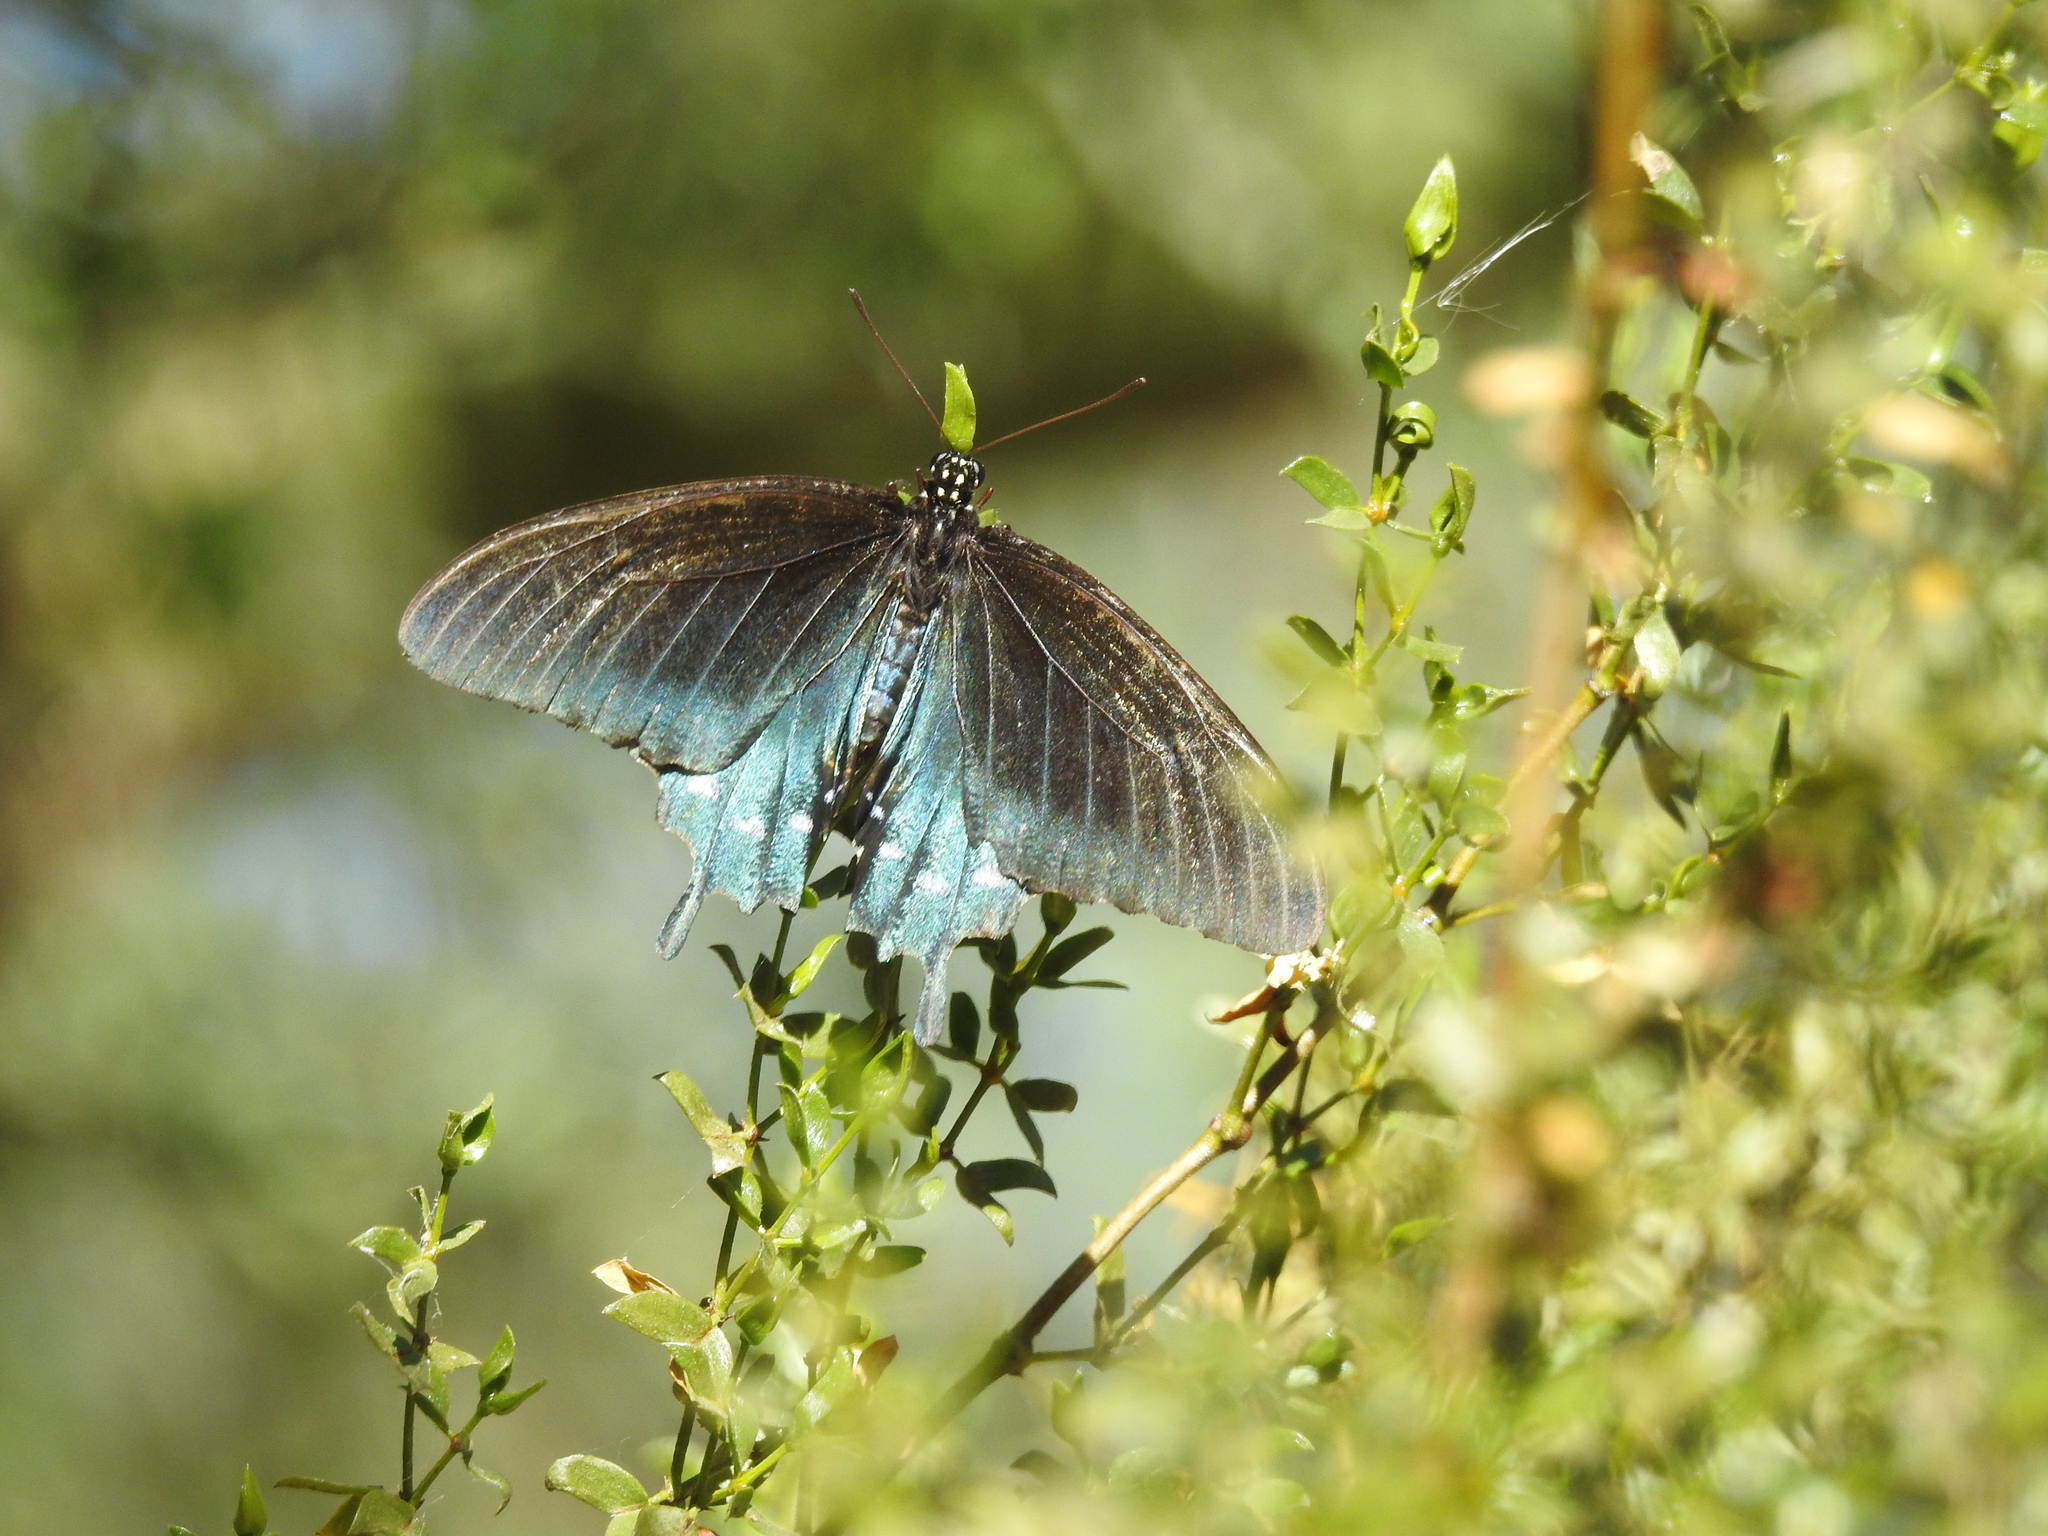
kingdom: Animalia
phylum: Arthropoda
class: Insecta
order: Lepidoptera
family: Papilionidae
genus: Battus
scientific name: Battus philenor
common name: Pipevine swallowtail
